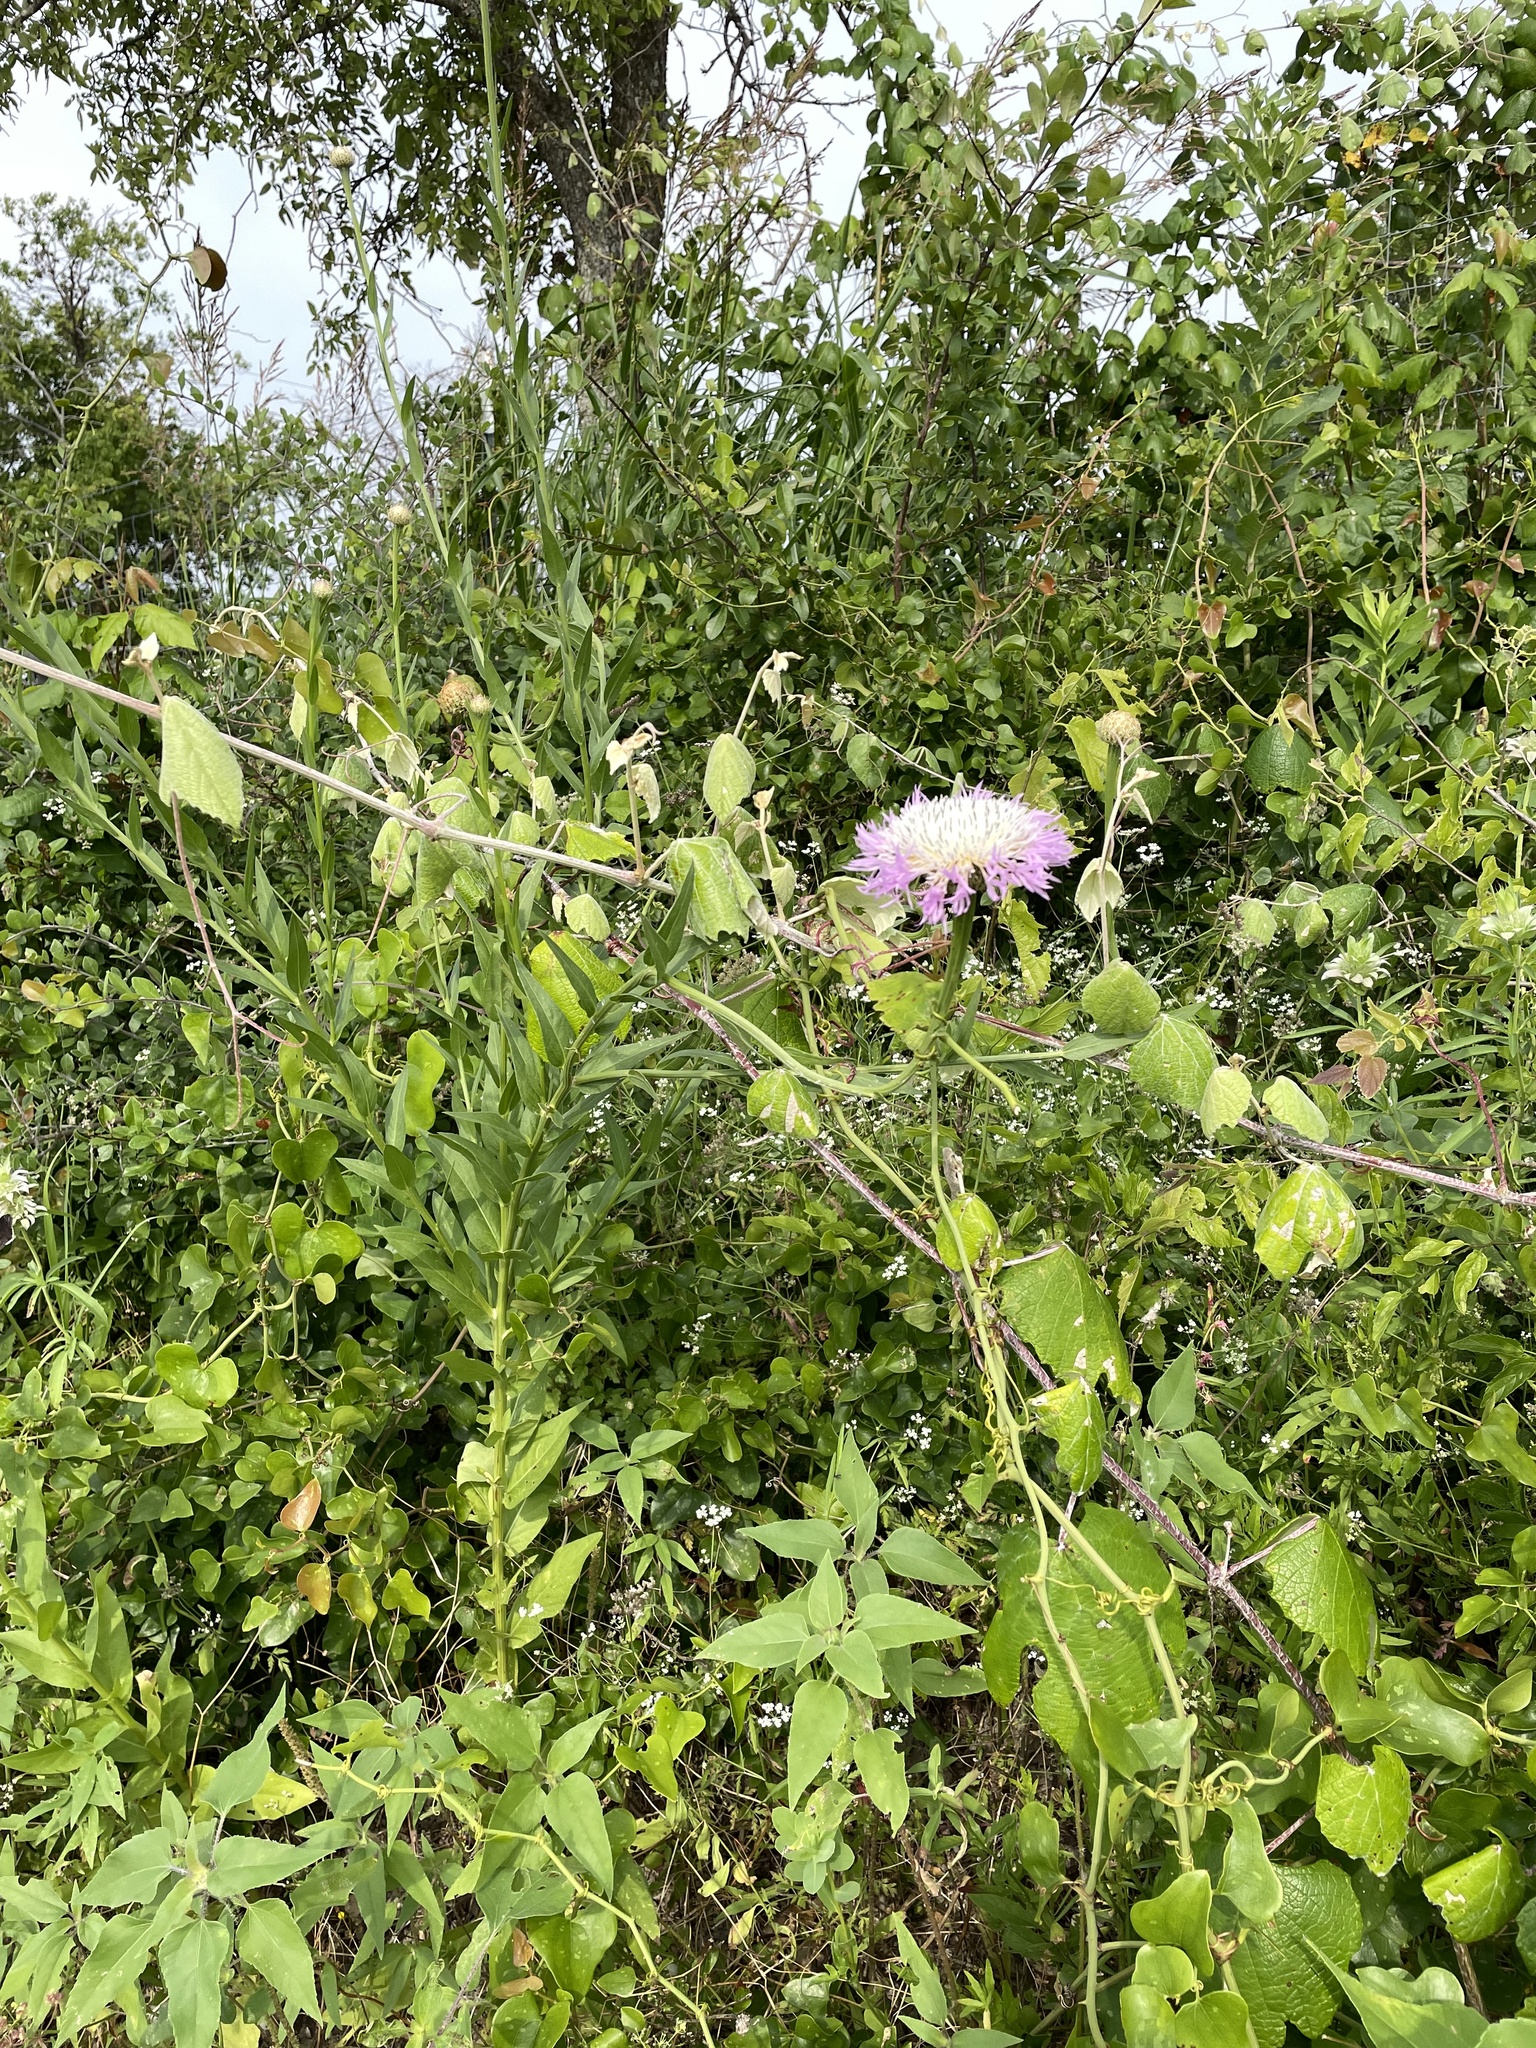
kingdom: Plantae
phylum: Tracheophyta
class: Magnoliopsida
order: Asterales
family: Asteraceae
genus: Plectocephalus
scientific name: Plectocephalus americanus
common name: American basket-flower
